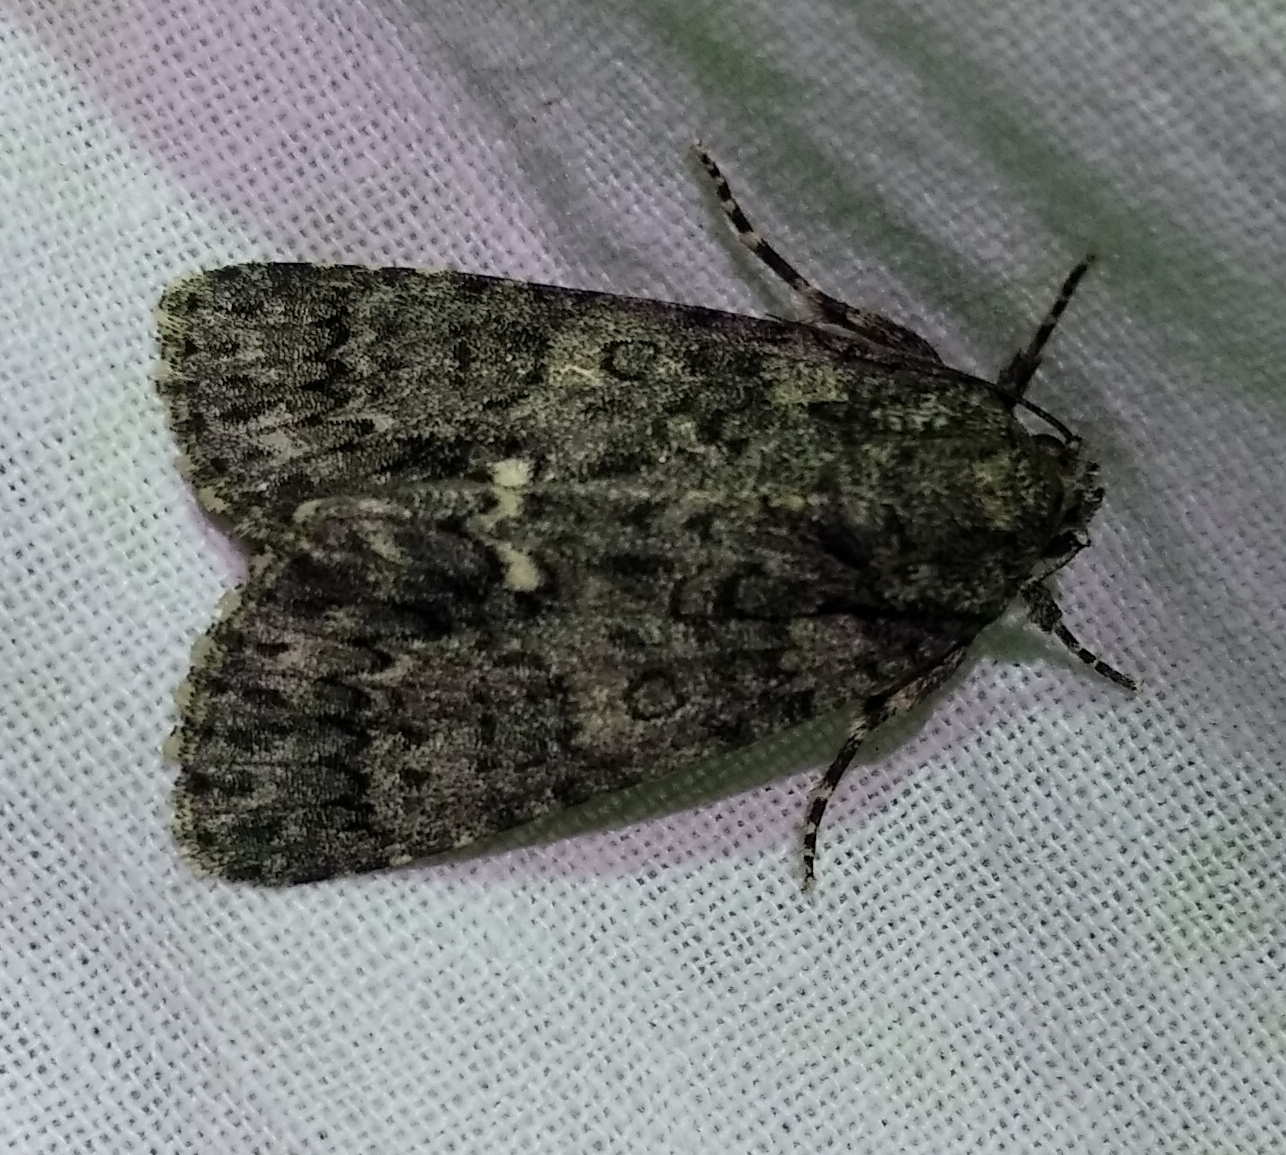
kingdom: Animalia
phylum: Arthropoda
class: Insecta
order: Lepidoptera
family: Noctuidae
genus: Acronicta
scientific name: Acronicta rumicis
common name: Knot grass
